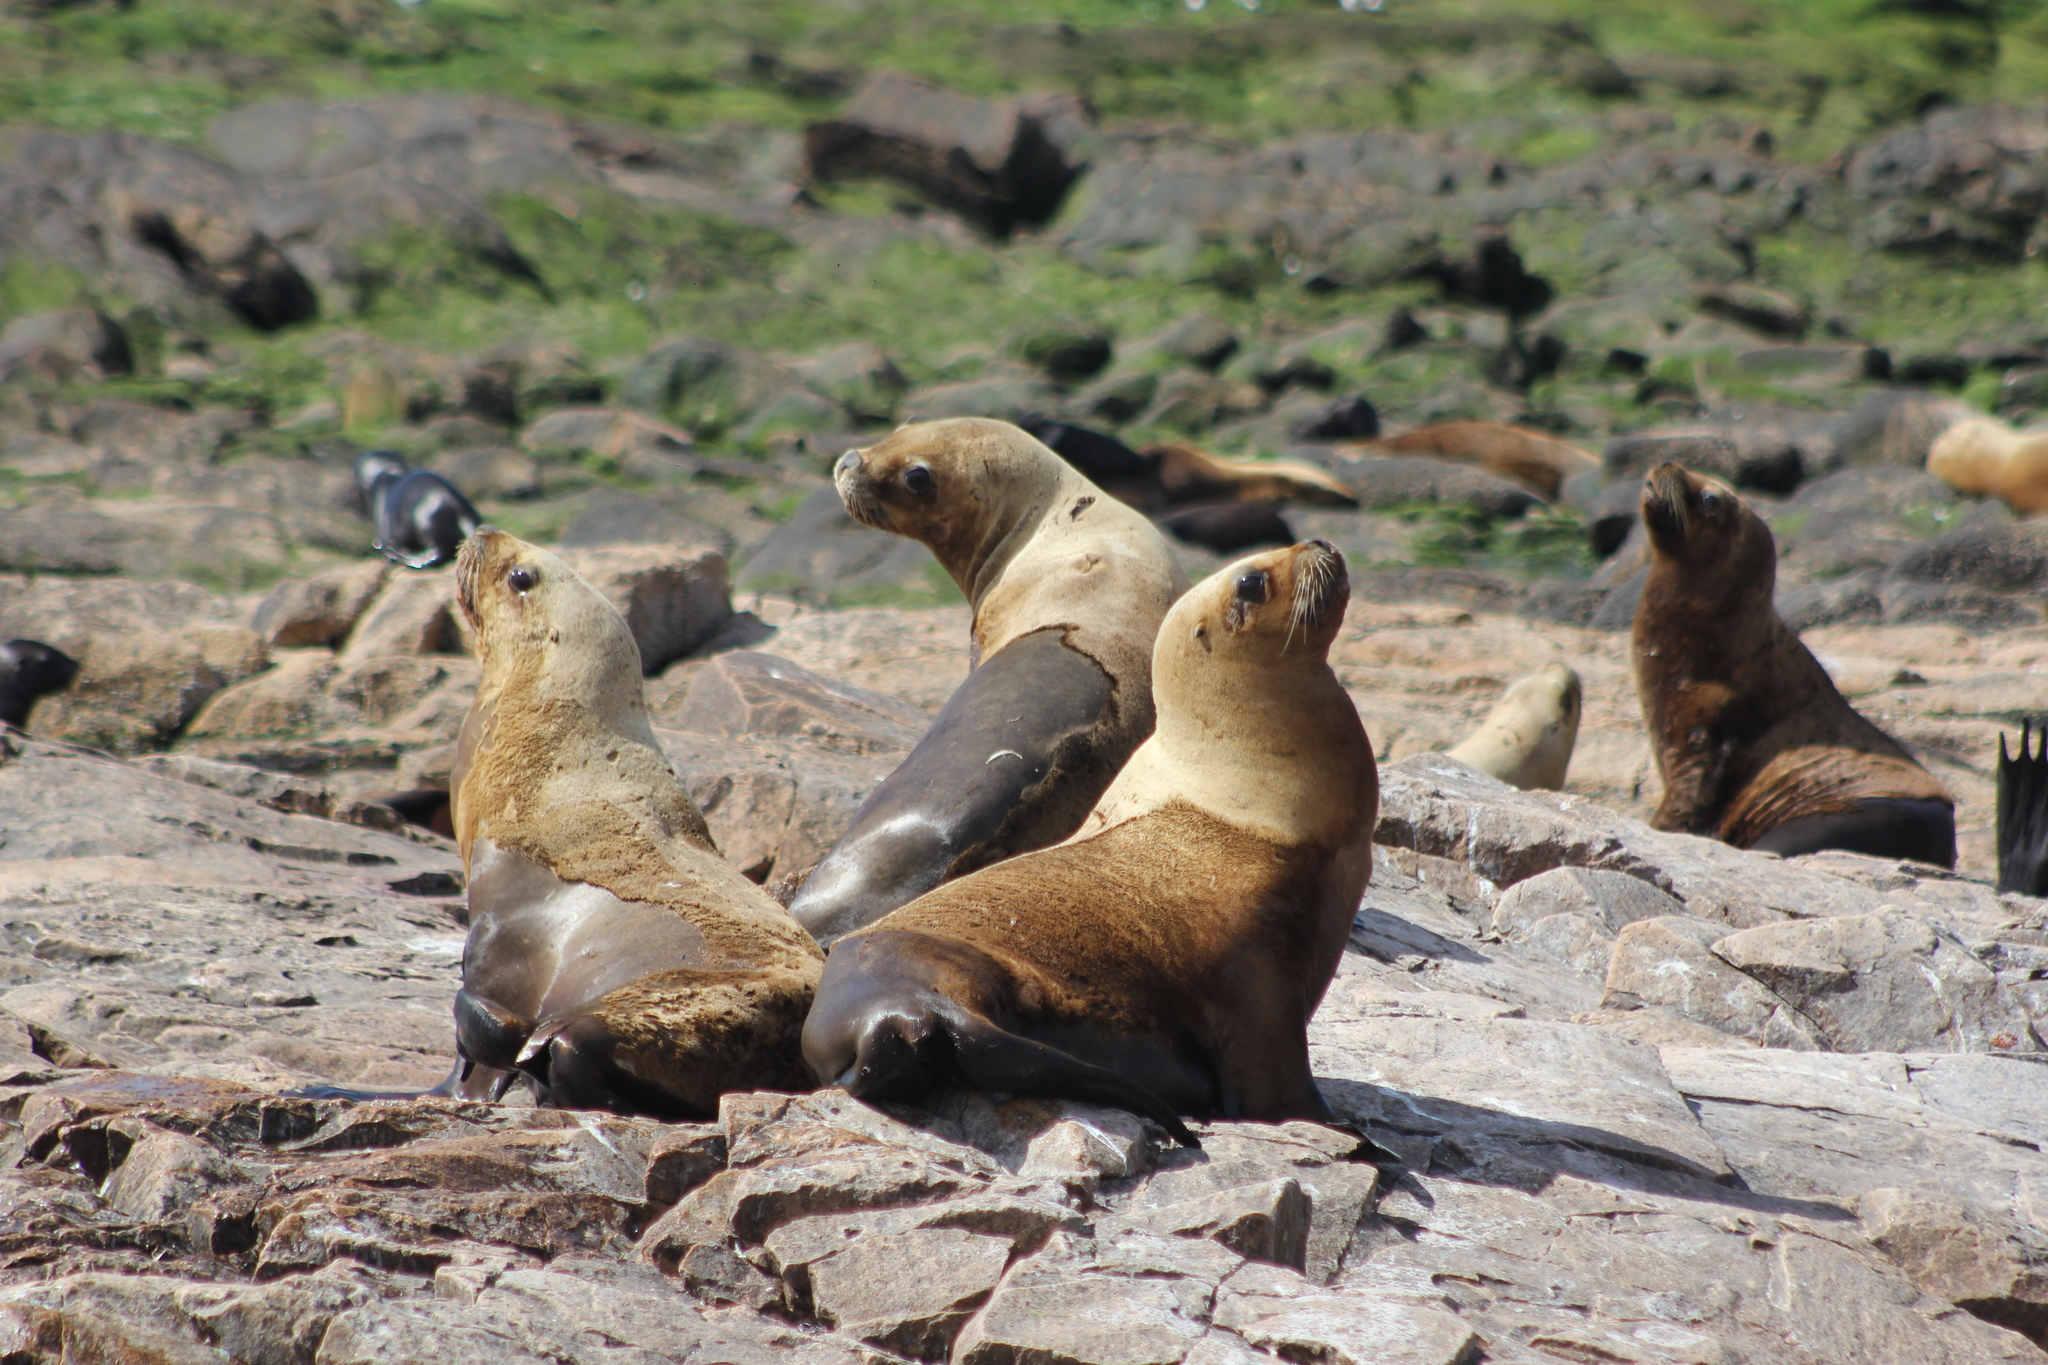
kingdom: Animalia
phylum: Chordata
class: Mammalia
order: Carnivora
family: Otariidae
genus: Otaria
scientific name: Otaria byronia
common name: South american sea lion
